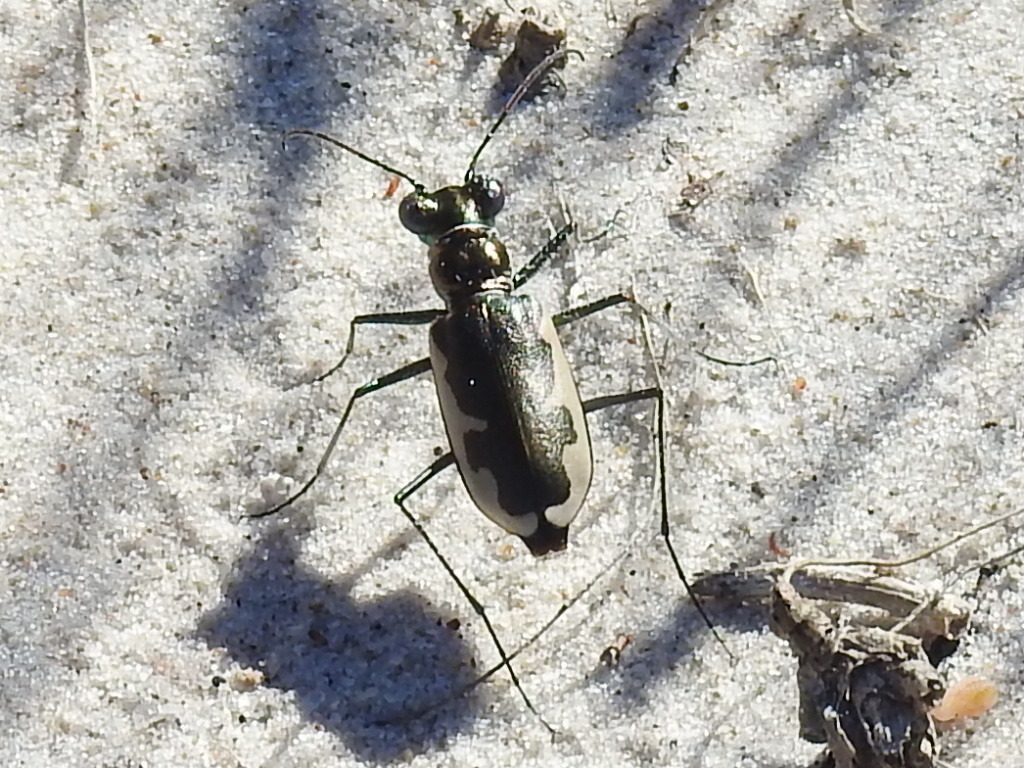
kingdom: Animalia
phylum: Arthropoda
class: Insecta
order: Coleoptera
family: Carabidae
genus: Eunota
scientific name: Eunota circumpicta
